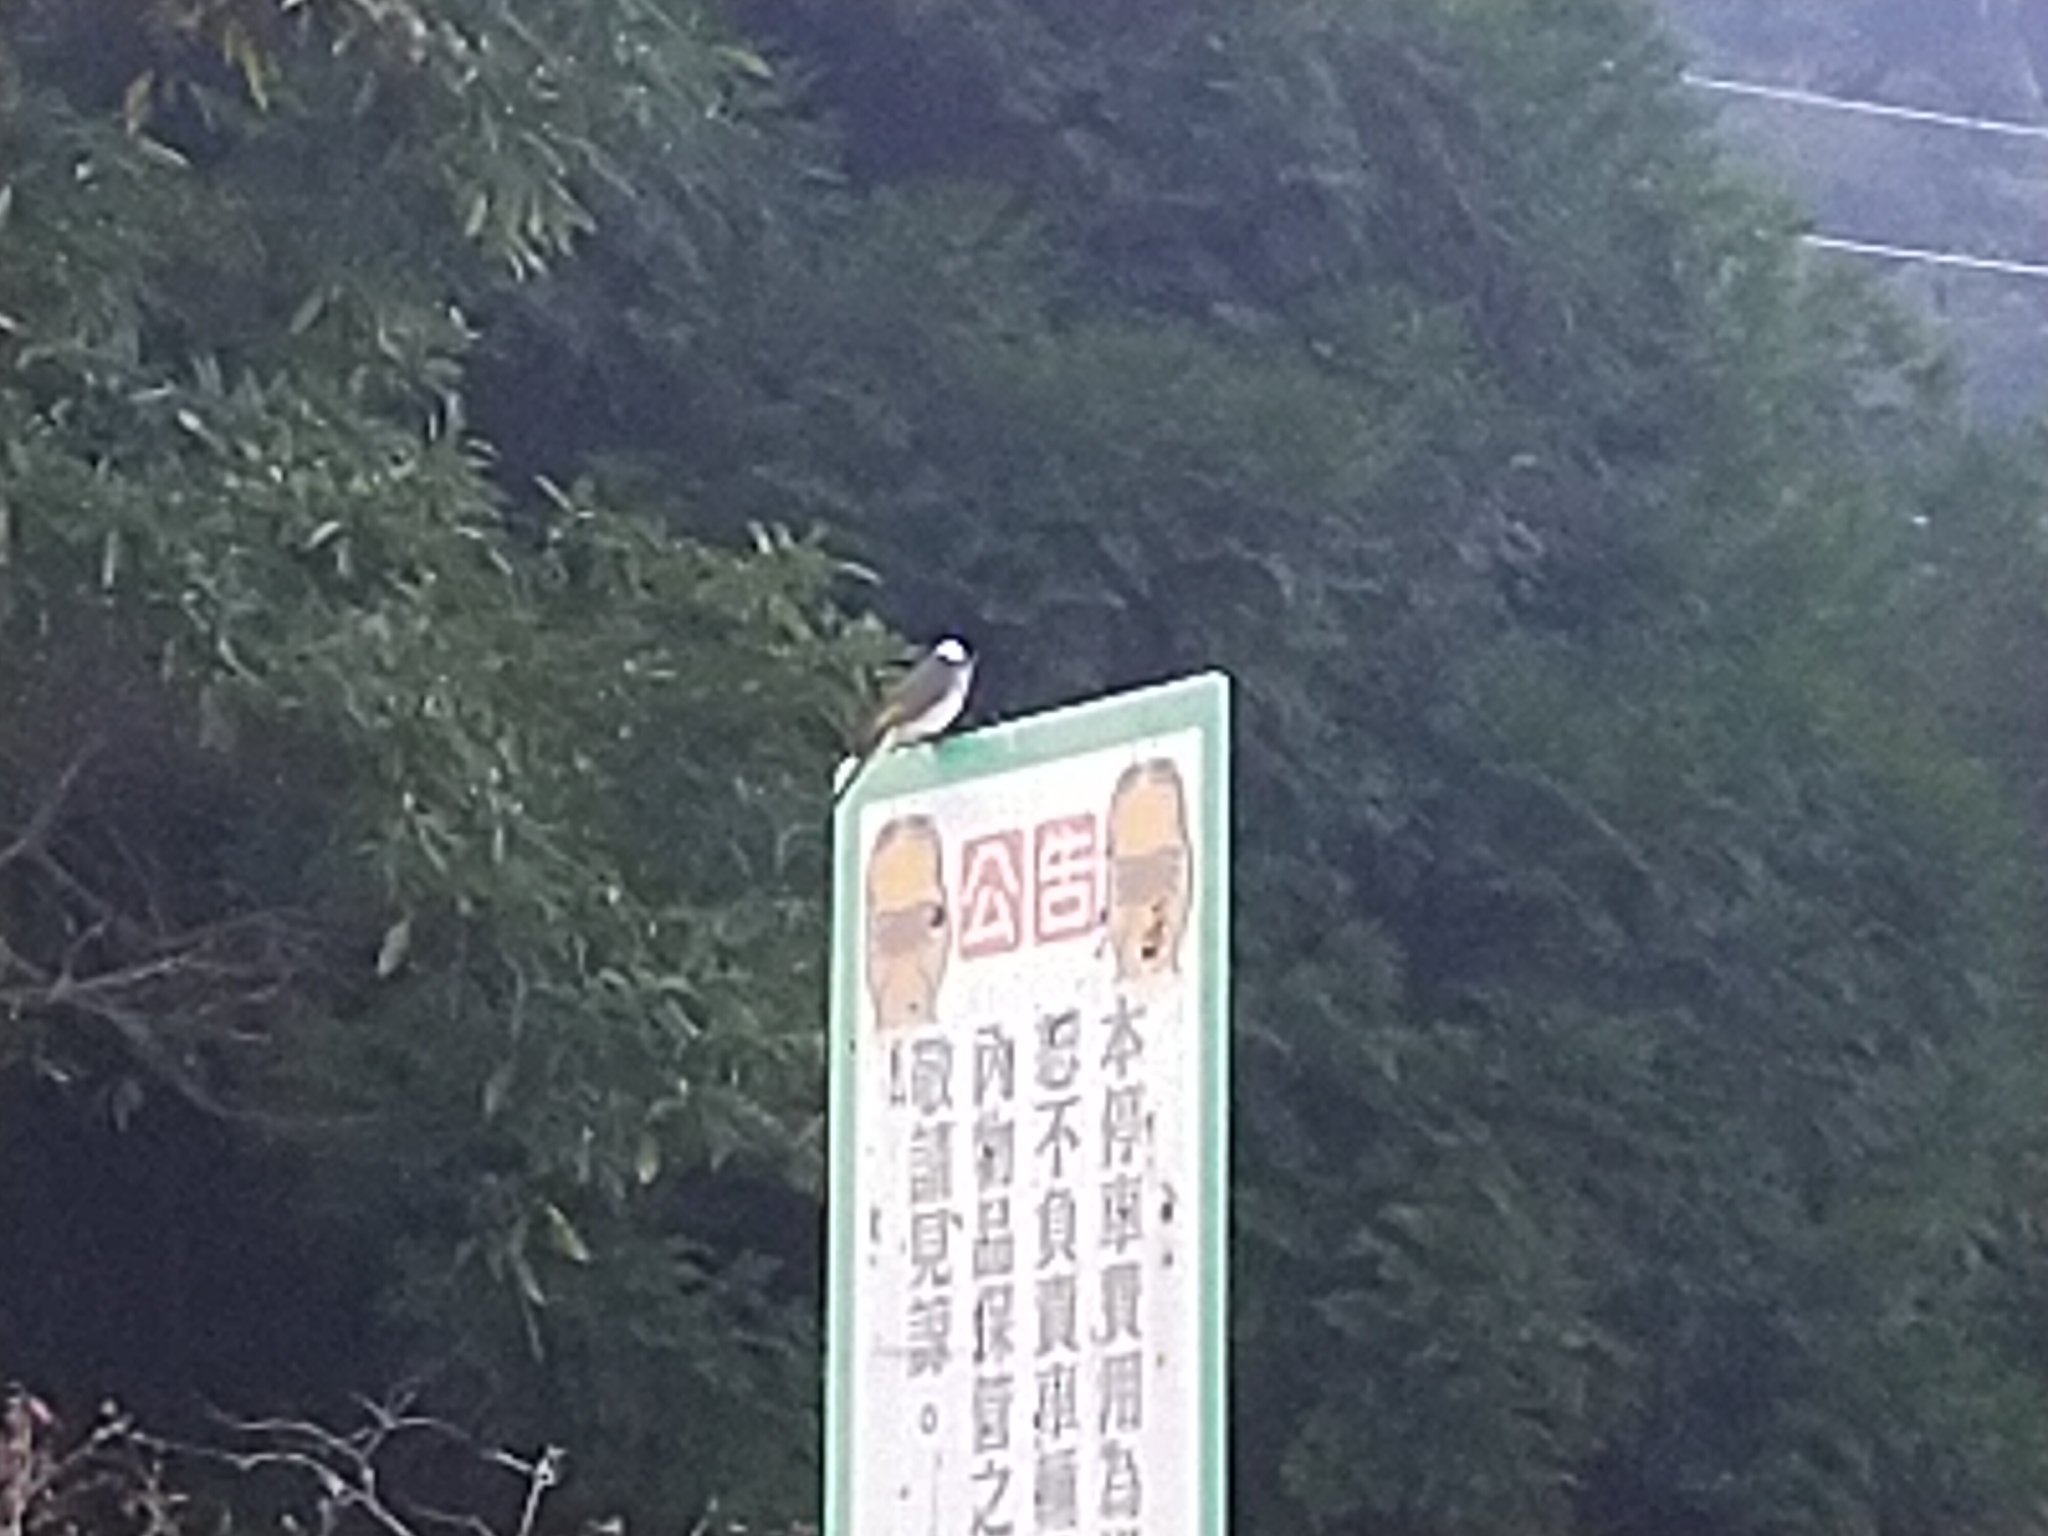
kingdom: Animalia
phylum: Chordata
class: Aves
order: Passeriformes
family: Pycnonotidae
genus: Pycnonotus
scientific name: Pycnonotus sinensis
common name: Light-vented bulbul
